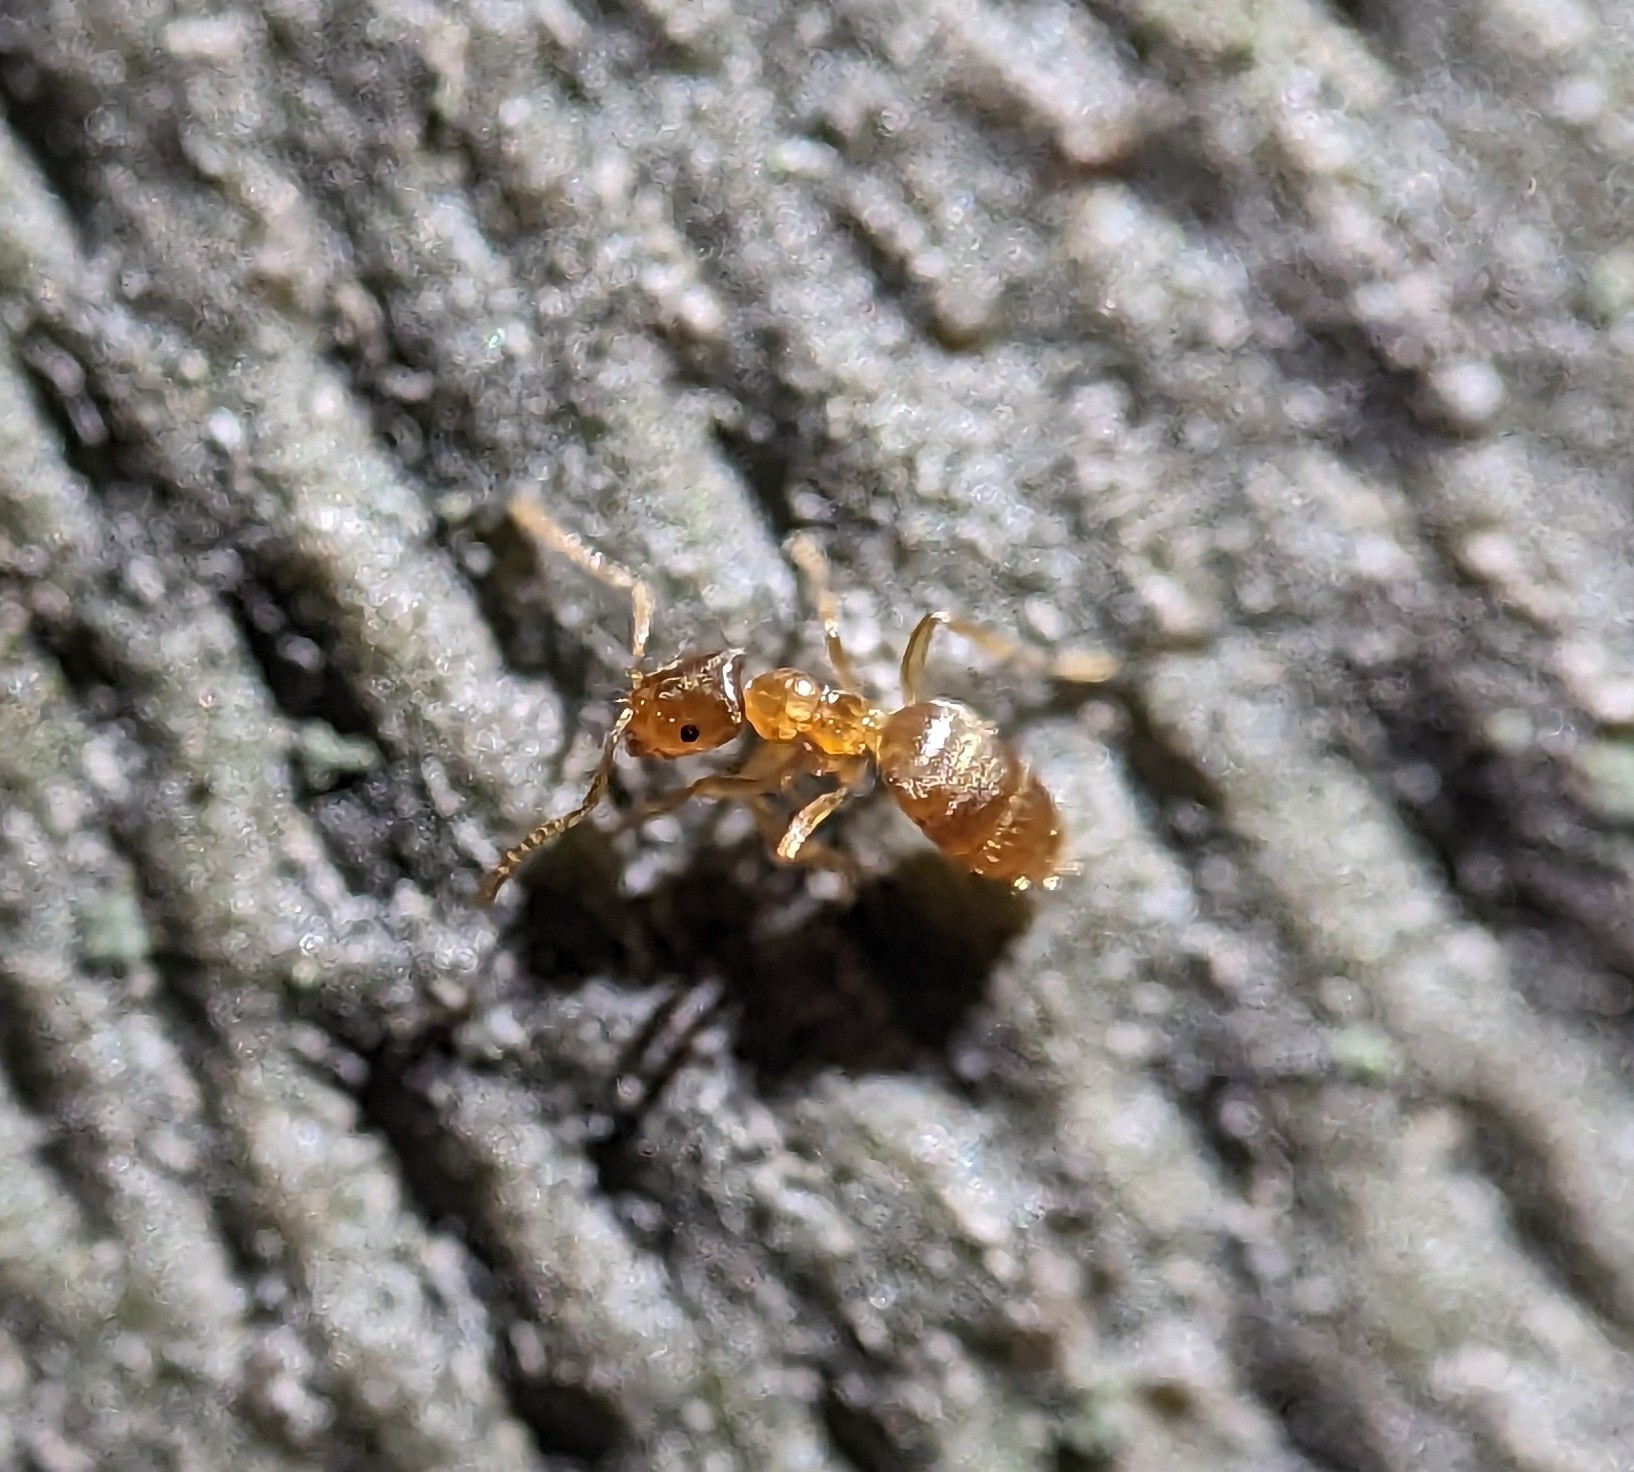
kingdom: Animalia
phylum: Arthropoda
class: Insecta
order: Hymenoptera
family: Formicidae
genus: Brachymyrmex
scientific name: Brachymyrmex depilis
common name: Hairless rover ant
